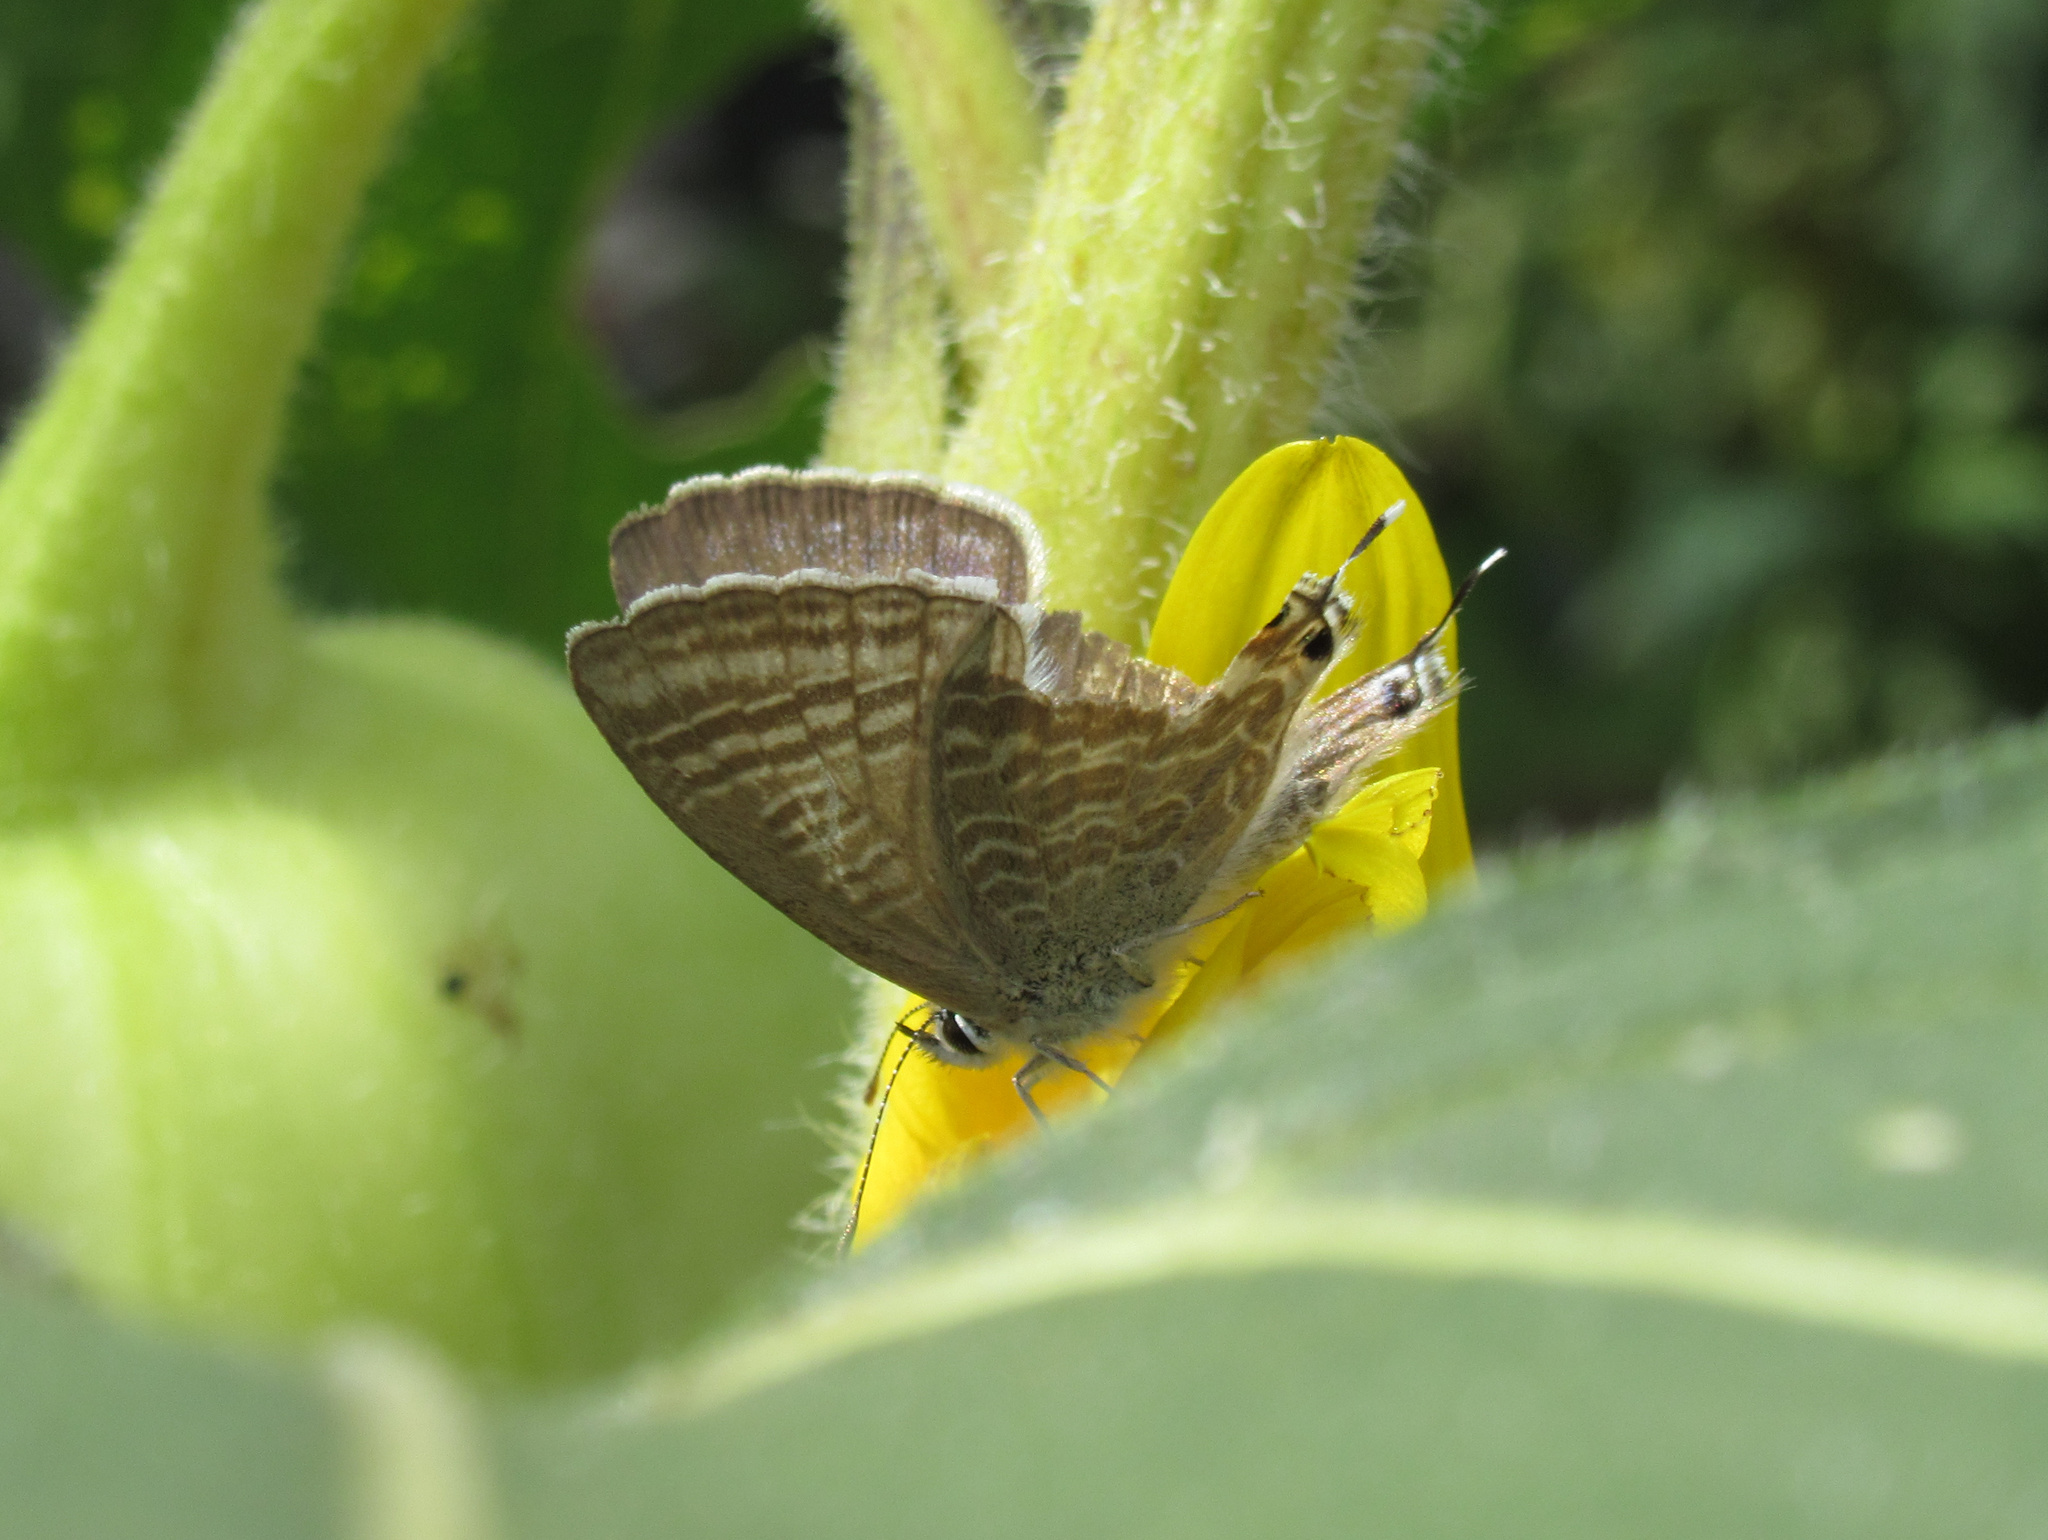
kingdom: Animalia
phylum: Arthropoda
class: Insecta
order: Lepidoptera
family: Lycaenidae
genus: Lampides
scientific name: Lampides boeticus
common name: Long-tailed blue
